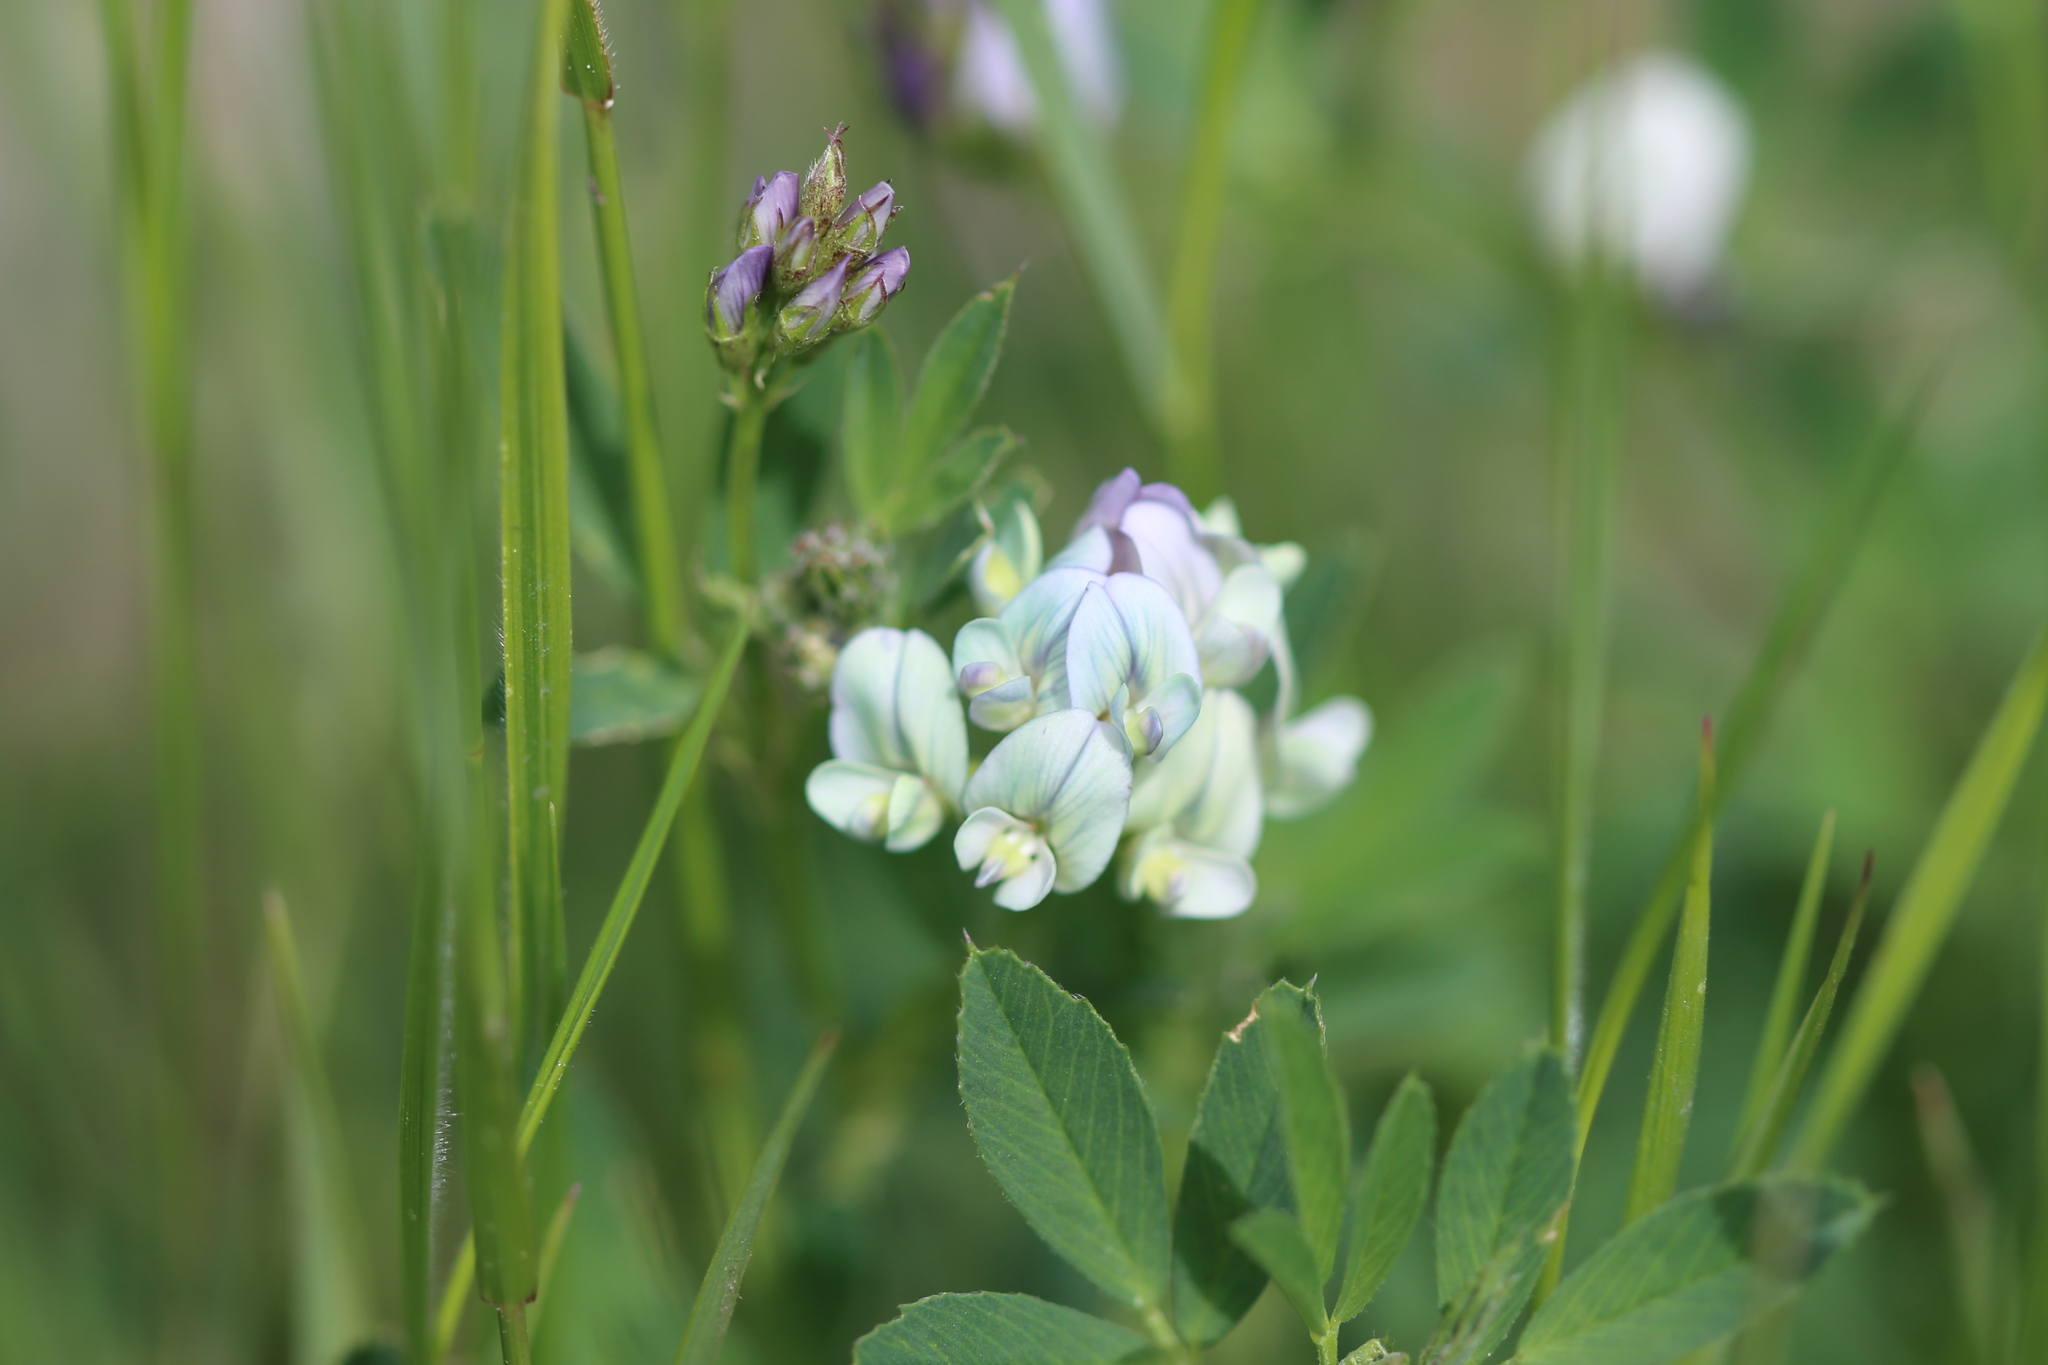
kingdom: Plantae
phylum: Tracheophyta
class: Magnoliopsida
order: Fabales
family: Fabaceae
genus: Medicago
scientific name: Medicago sativa
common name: Alfalfa
